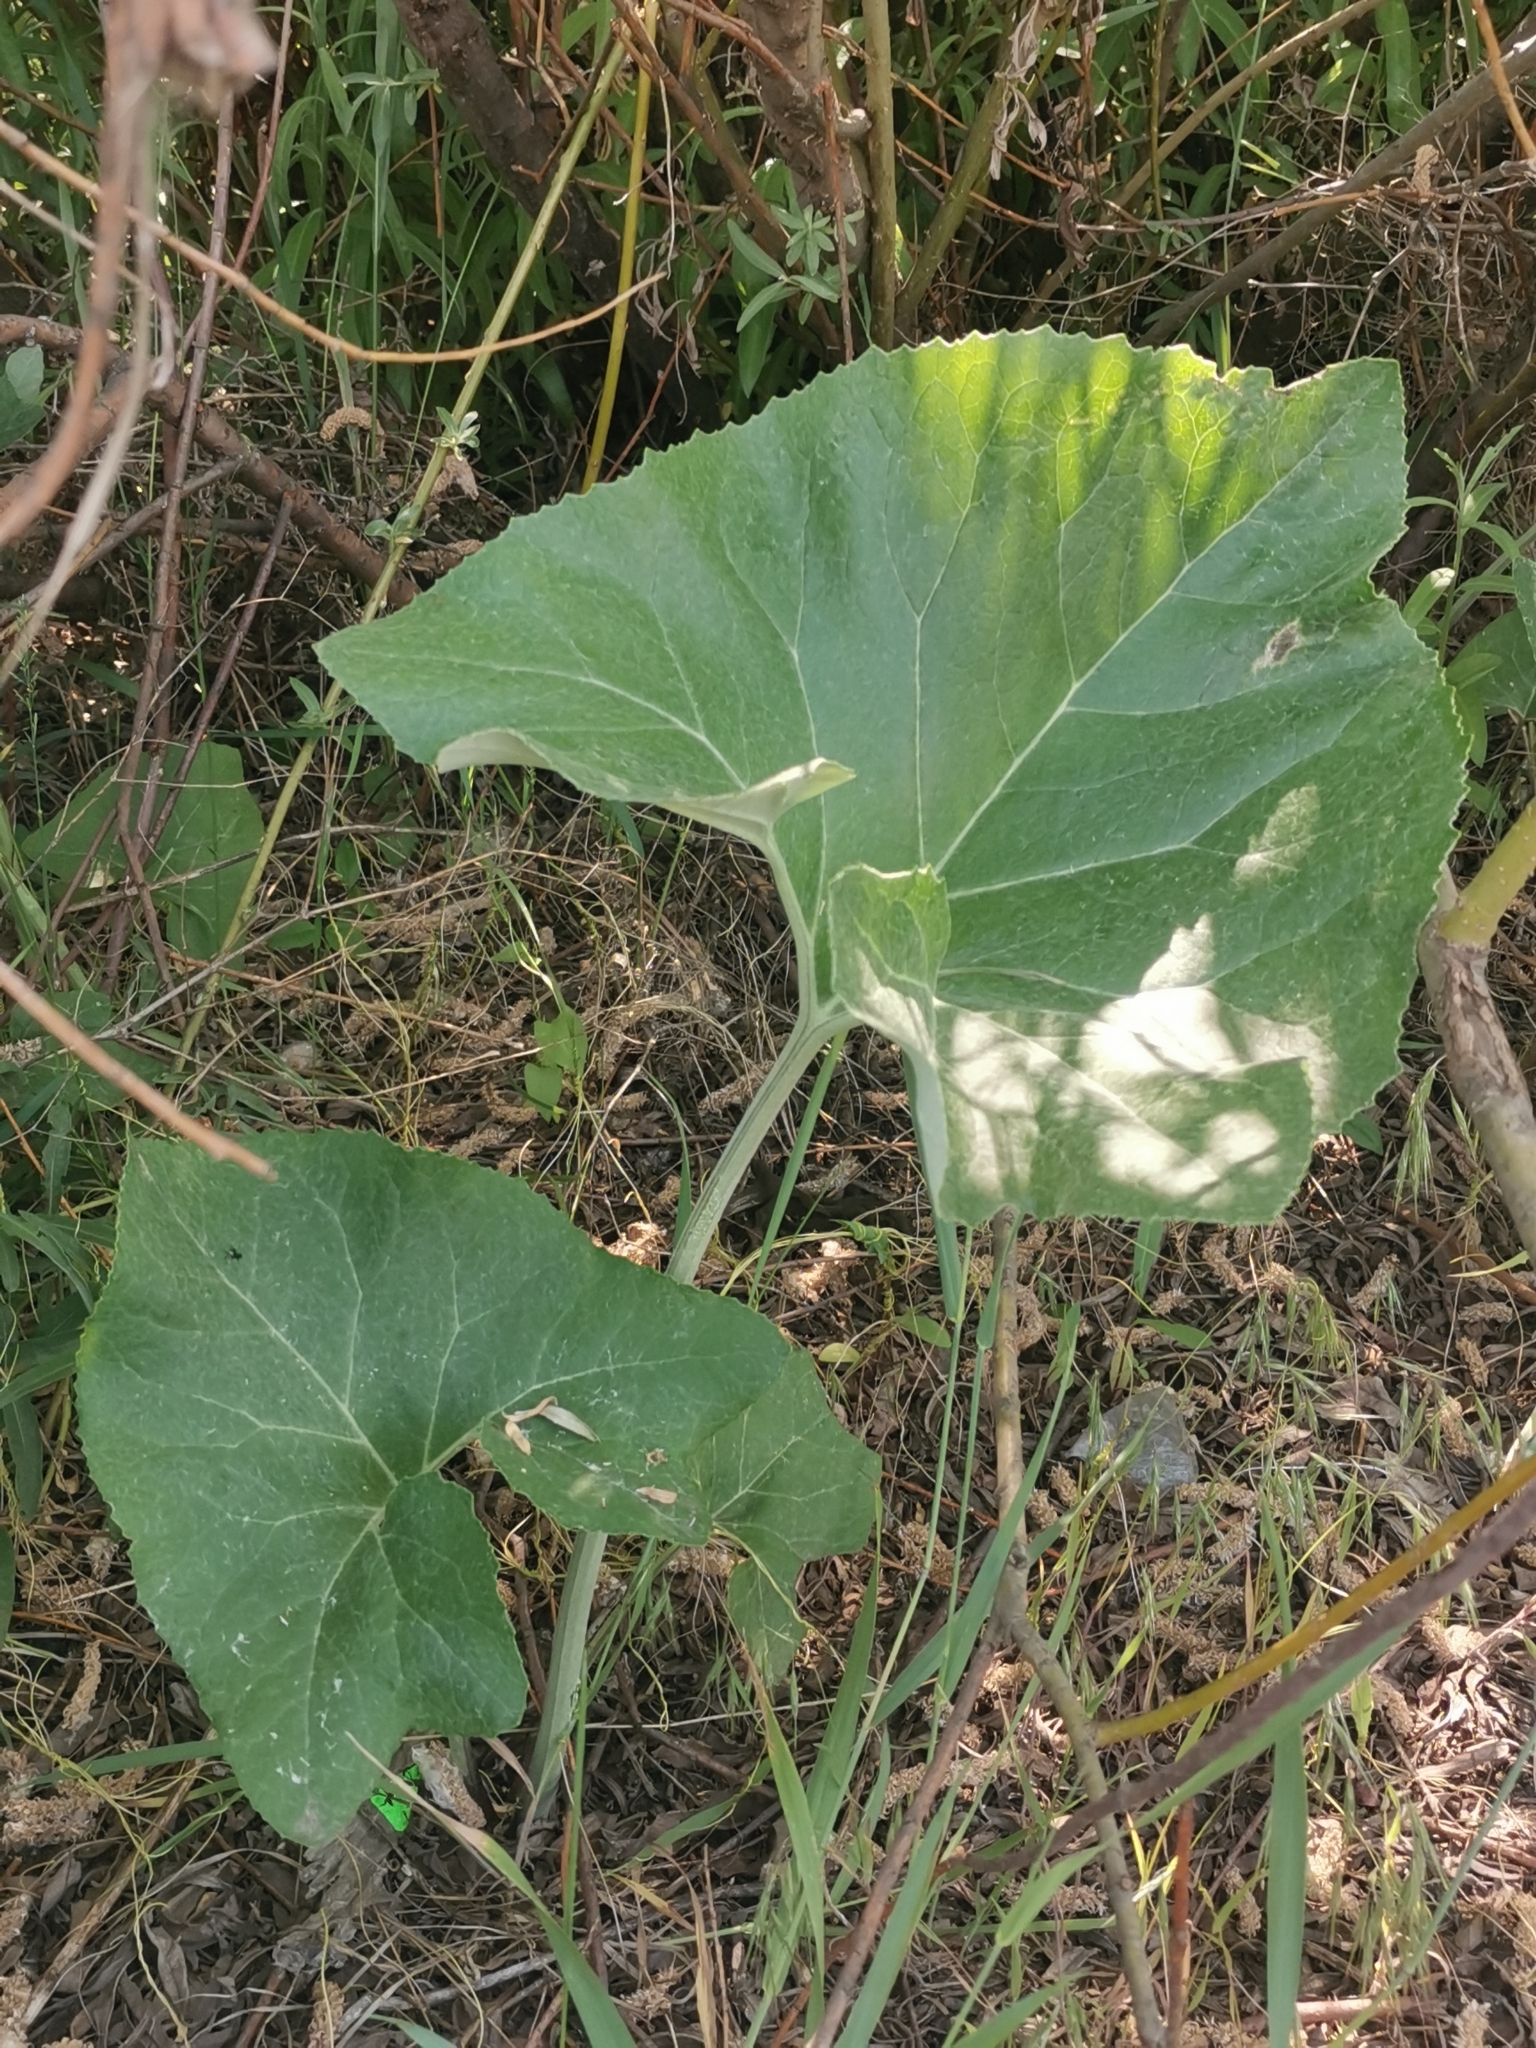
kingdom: Plantae
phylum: Tracheophyta
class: Magnoliopsida
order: Asterales
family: Asteraceae
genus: Petasites
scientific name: Petasites spurius
